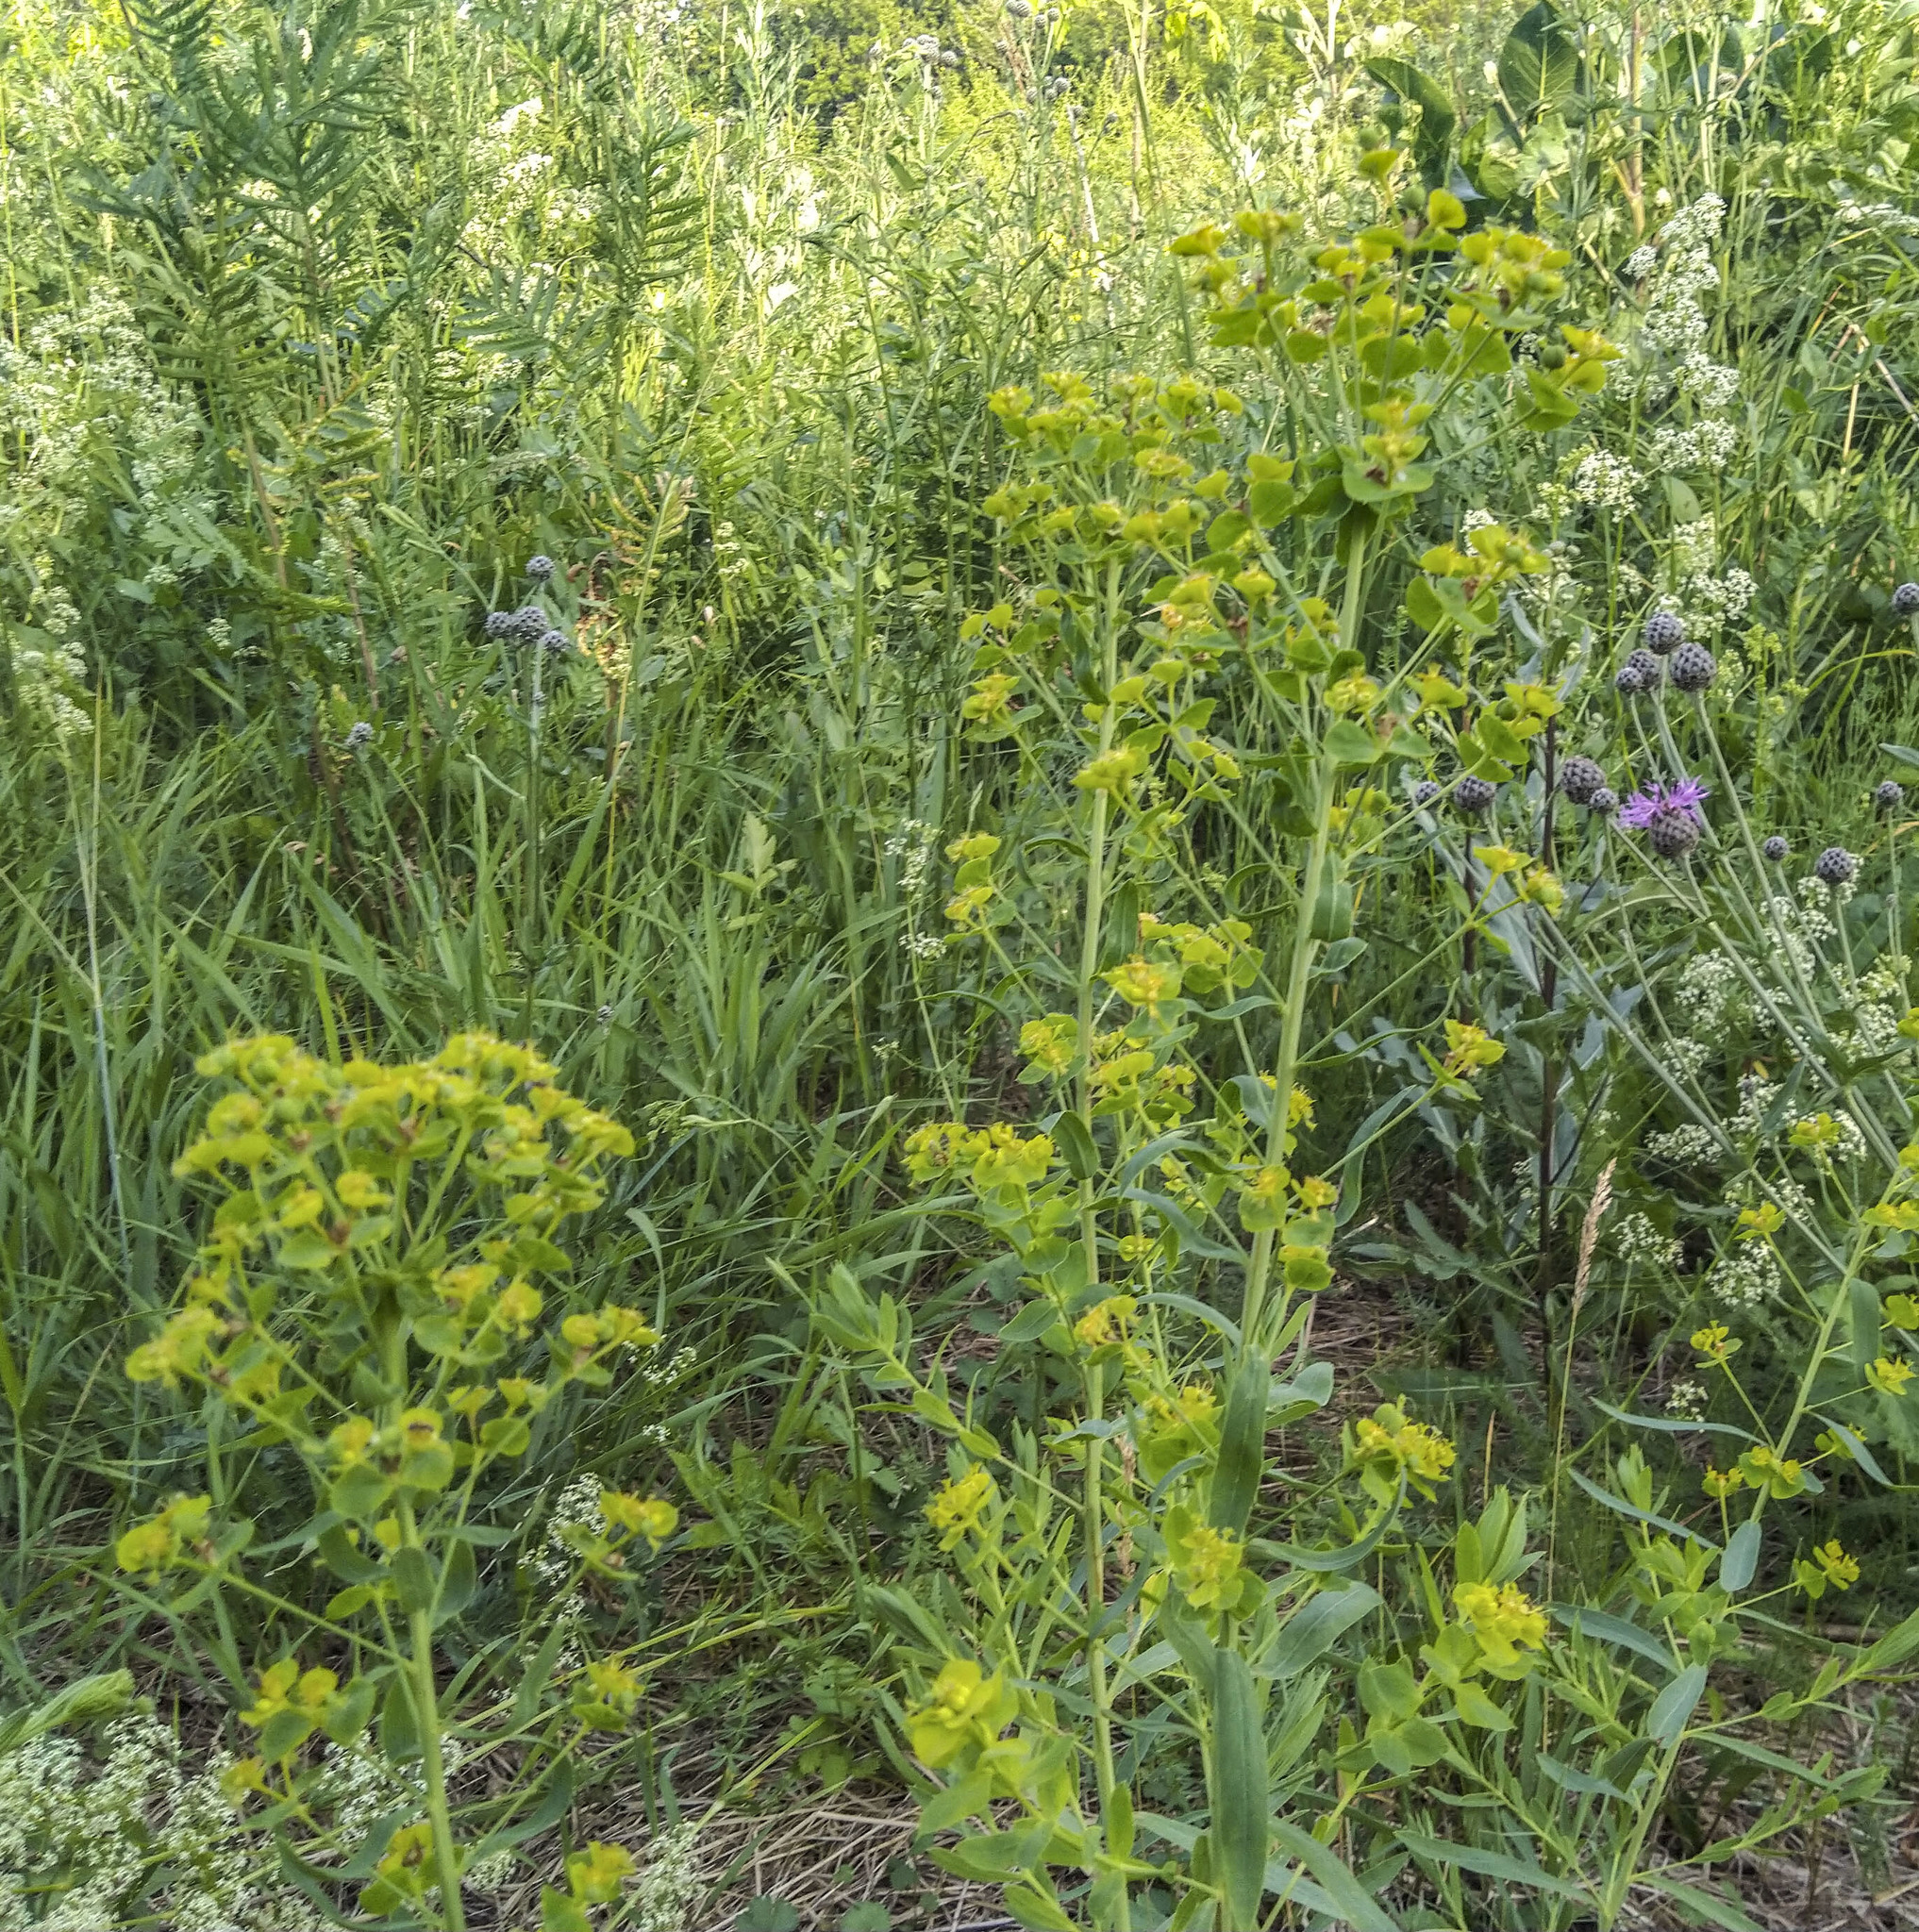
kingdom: Plantae
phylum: Tracheophyta
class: Magnoliopsida
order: Malpighiales
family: Euphorbiaceae
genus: Euphorbia
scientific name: Euphorbia virgata
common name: Leafy spurge
